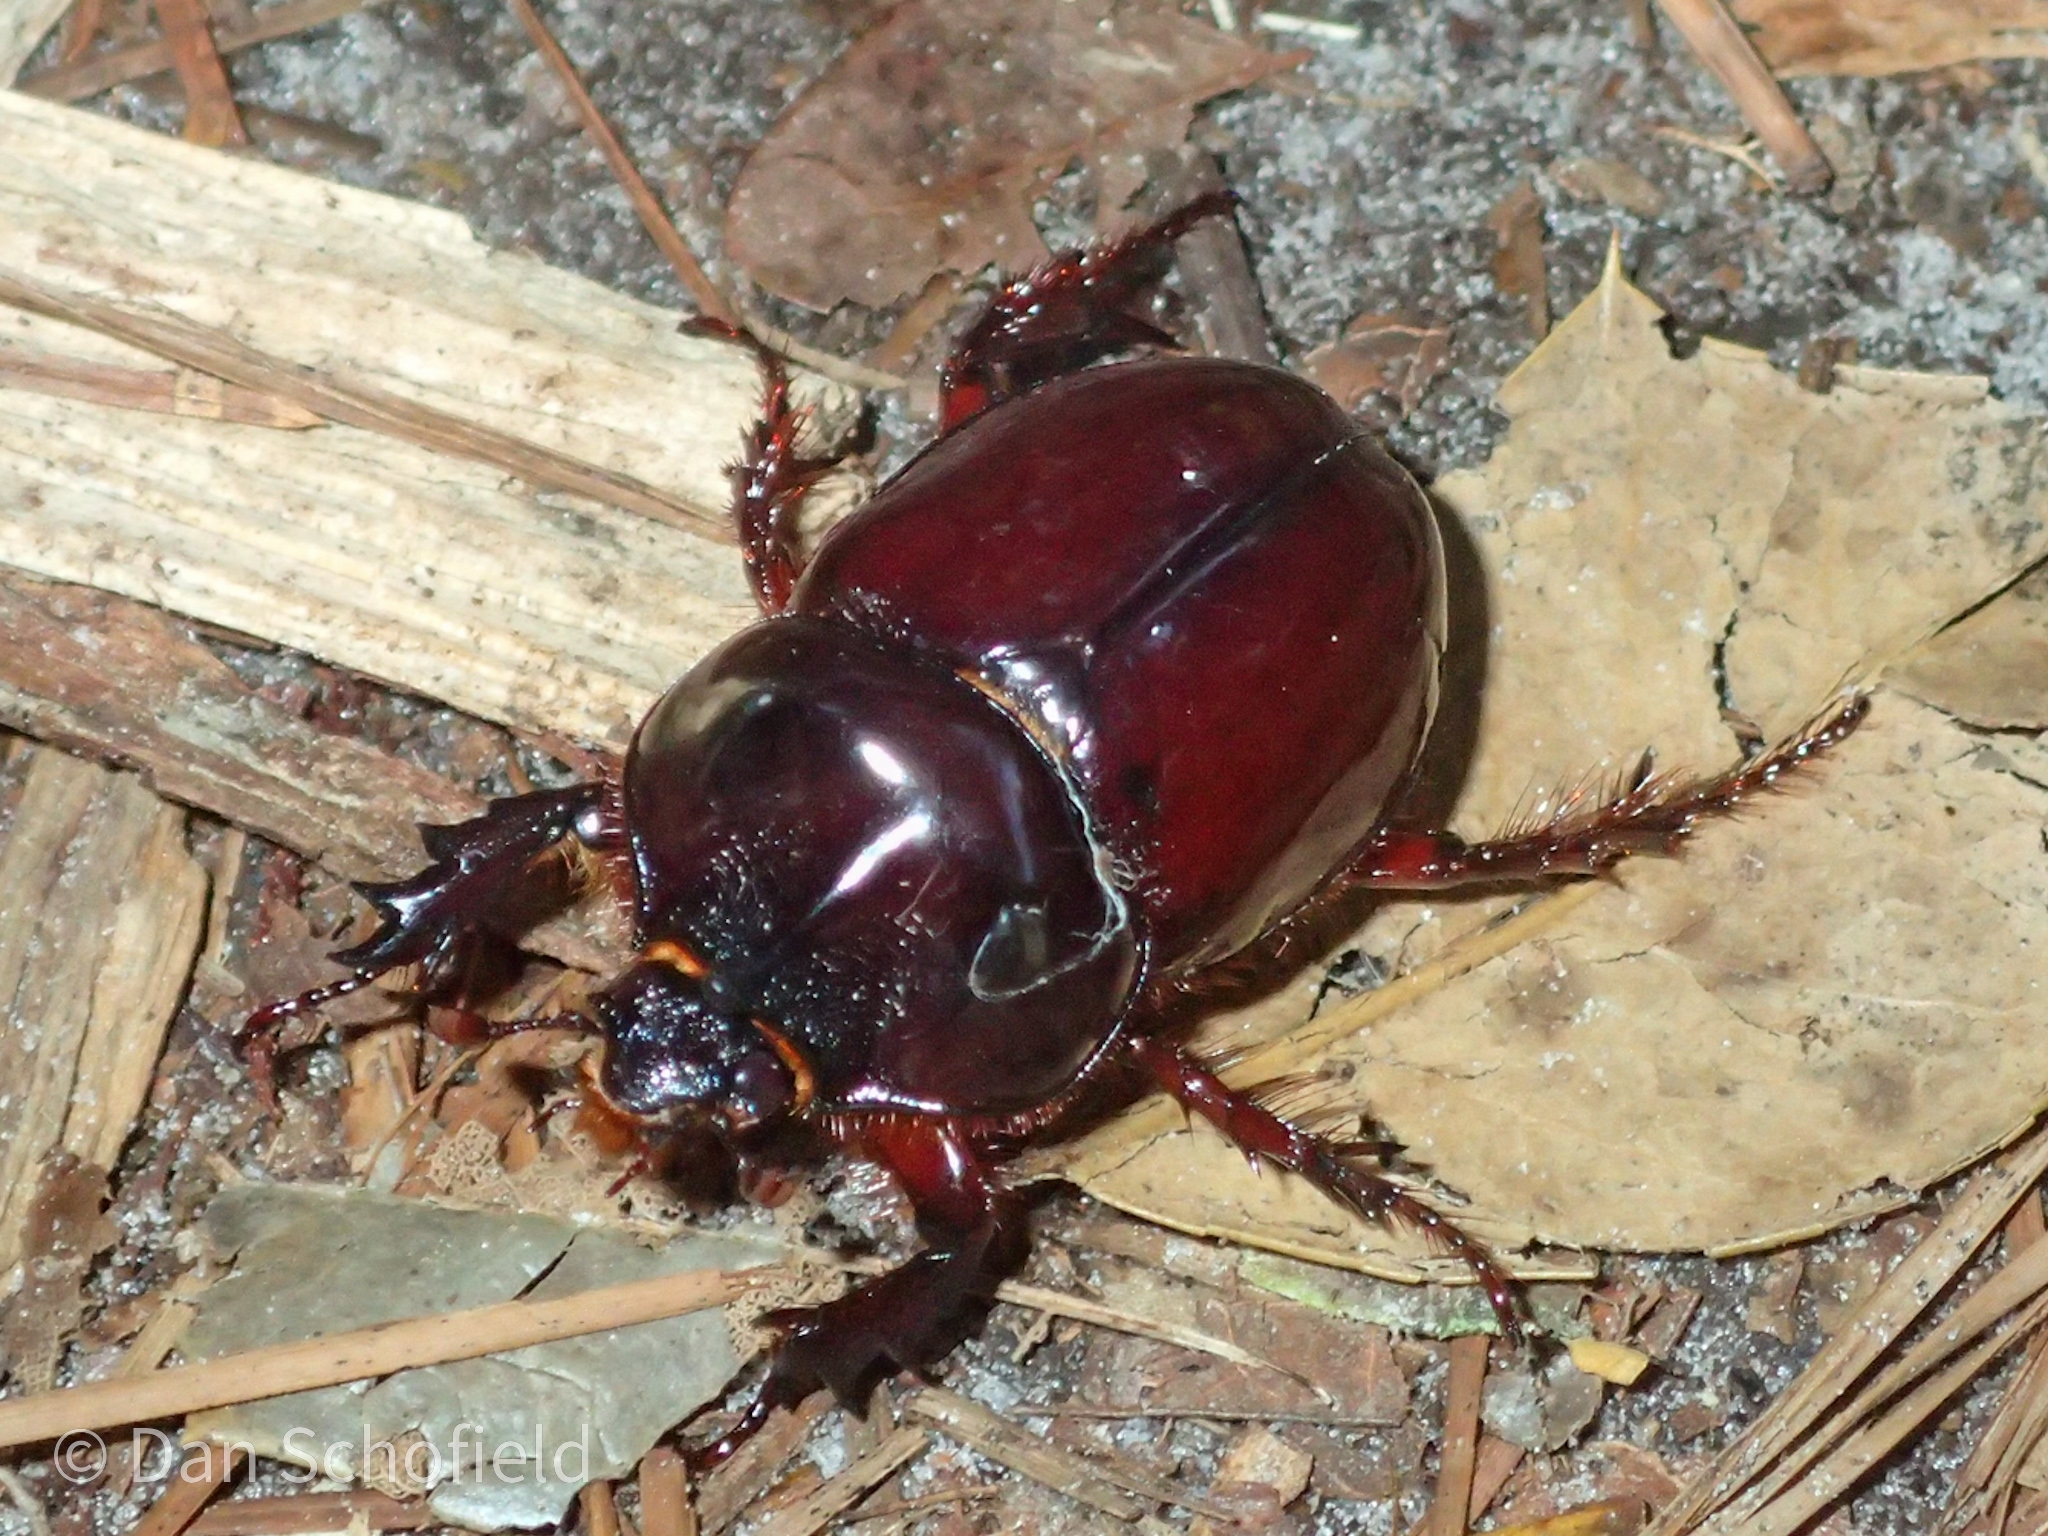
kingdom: Animalia
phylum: Arthropoda
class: Insecta
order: Coleoptera
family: Scarabaeidae
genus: Strategus
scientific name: Strategus antaeus
